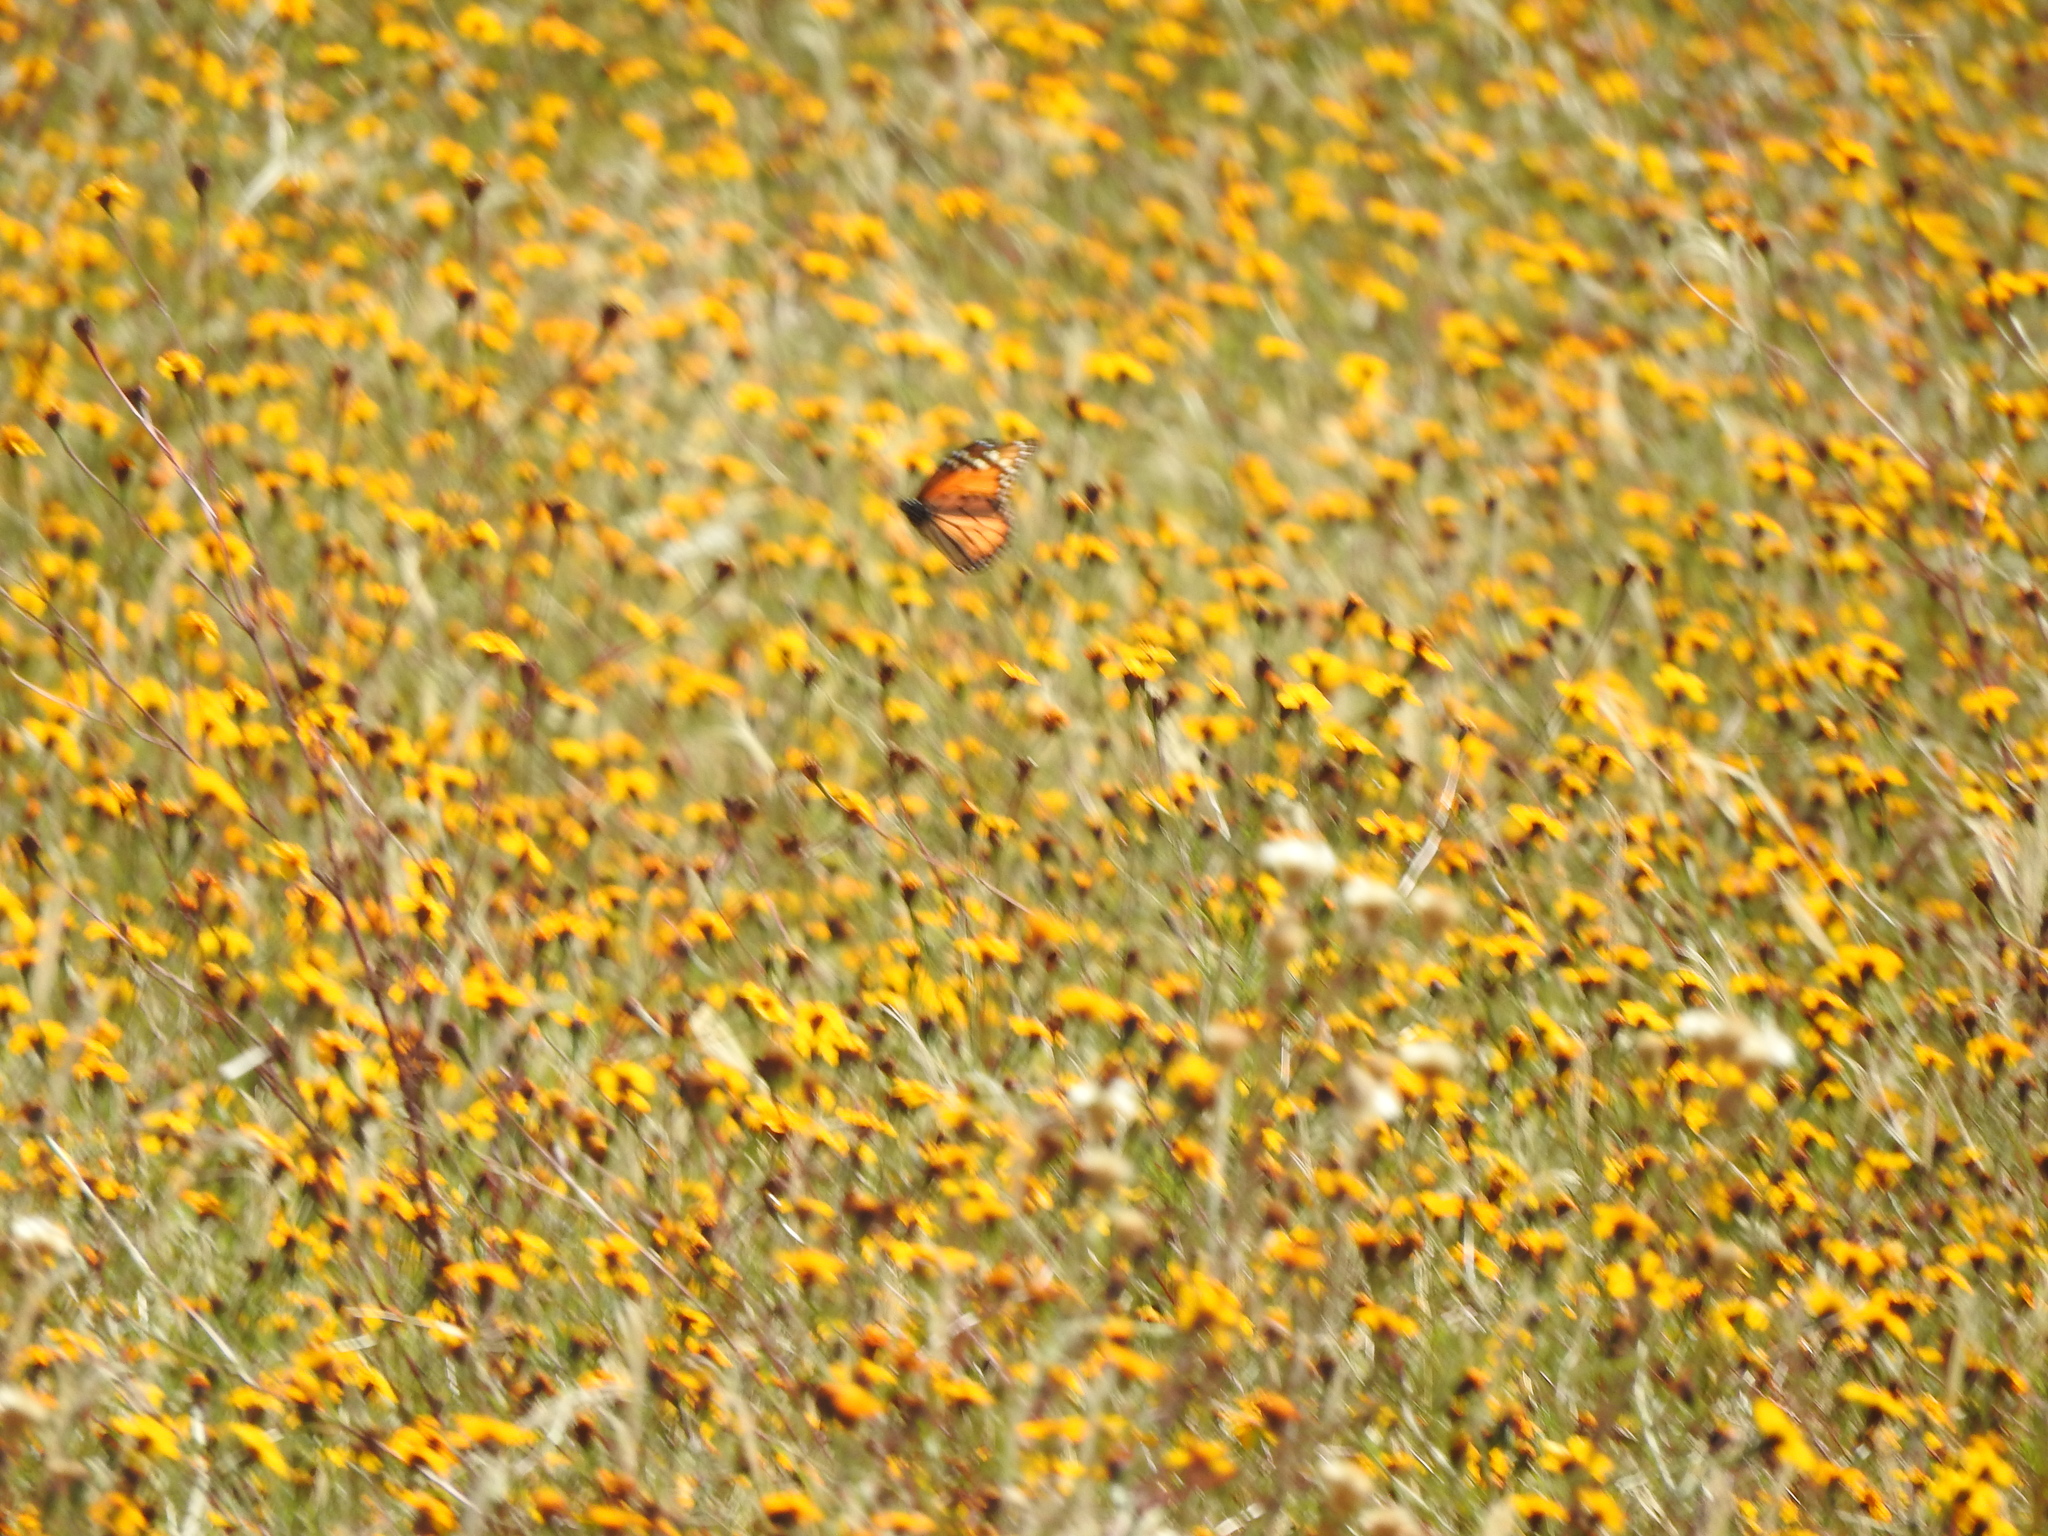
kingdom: Animalia
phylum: Arthropoda
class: Insecta
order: Lepidoptera
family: Nymphalidae
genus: Danaus
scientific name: Danaus plexippus
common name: Monarch
